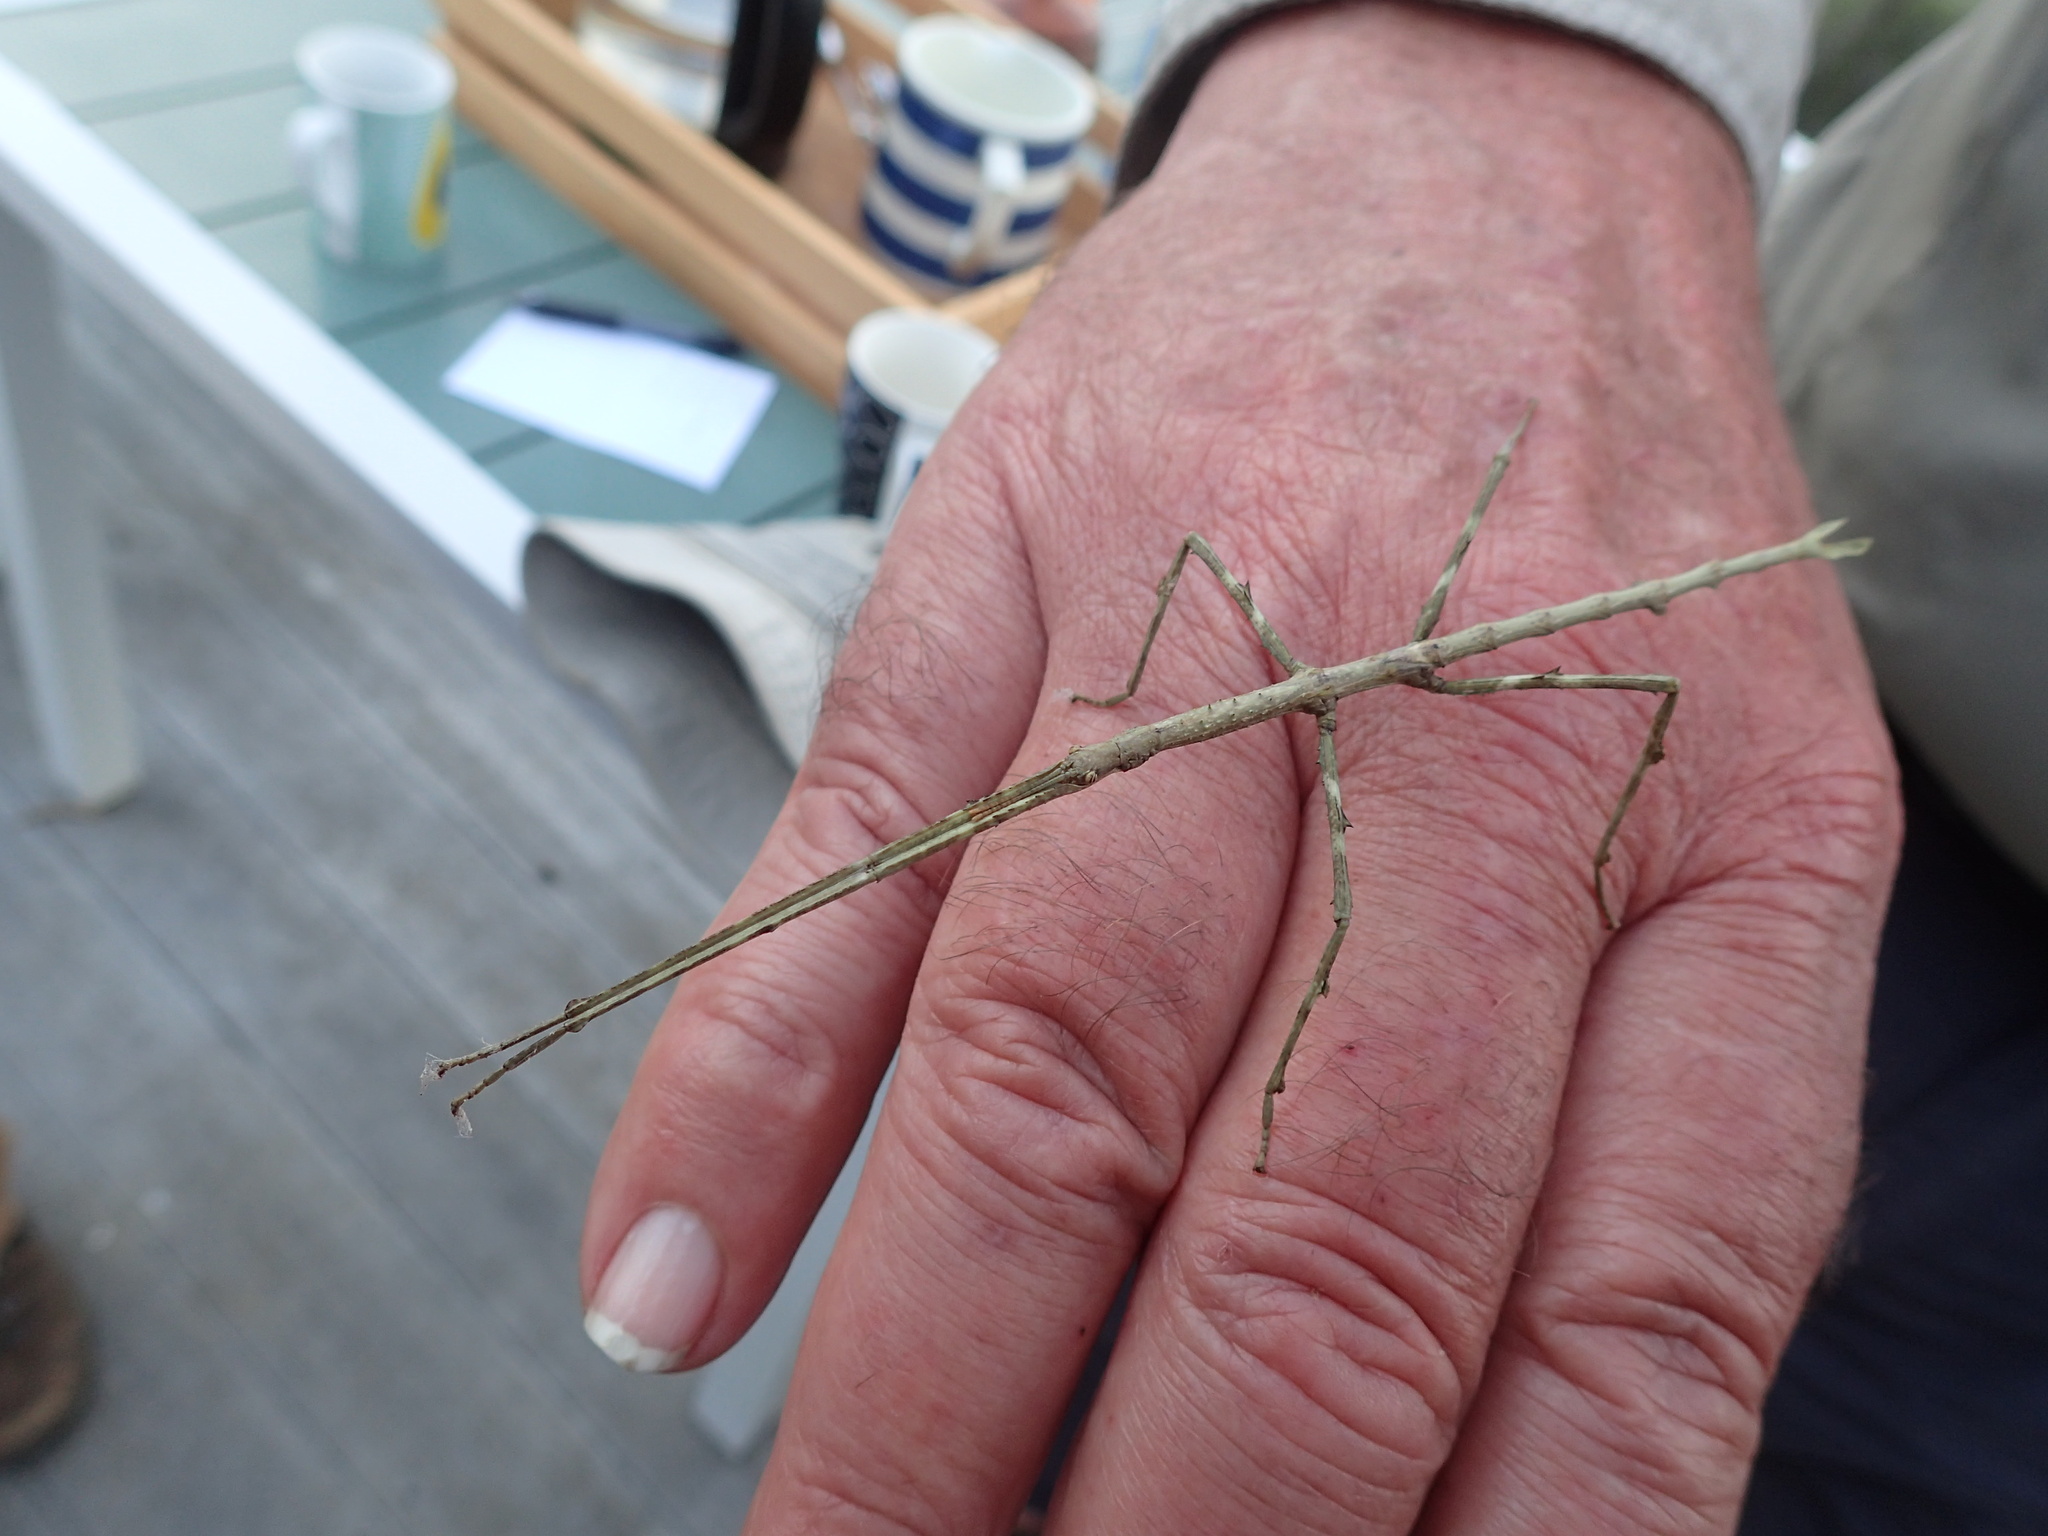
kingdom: Animalia
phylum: Arthropoda
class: Insecta
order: Phasmida
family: Phasmatidae
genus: Ctenomorpha
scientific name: Ctenomorpha marginipennis
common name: Margined-winged stick-insect
